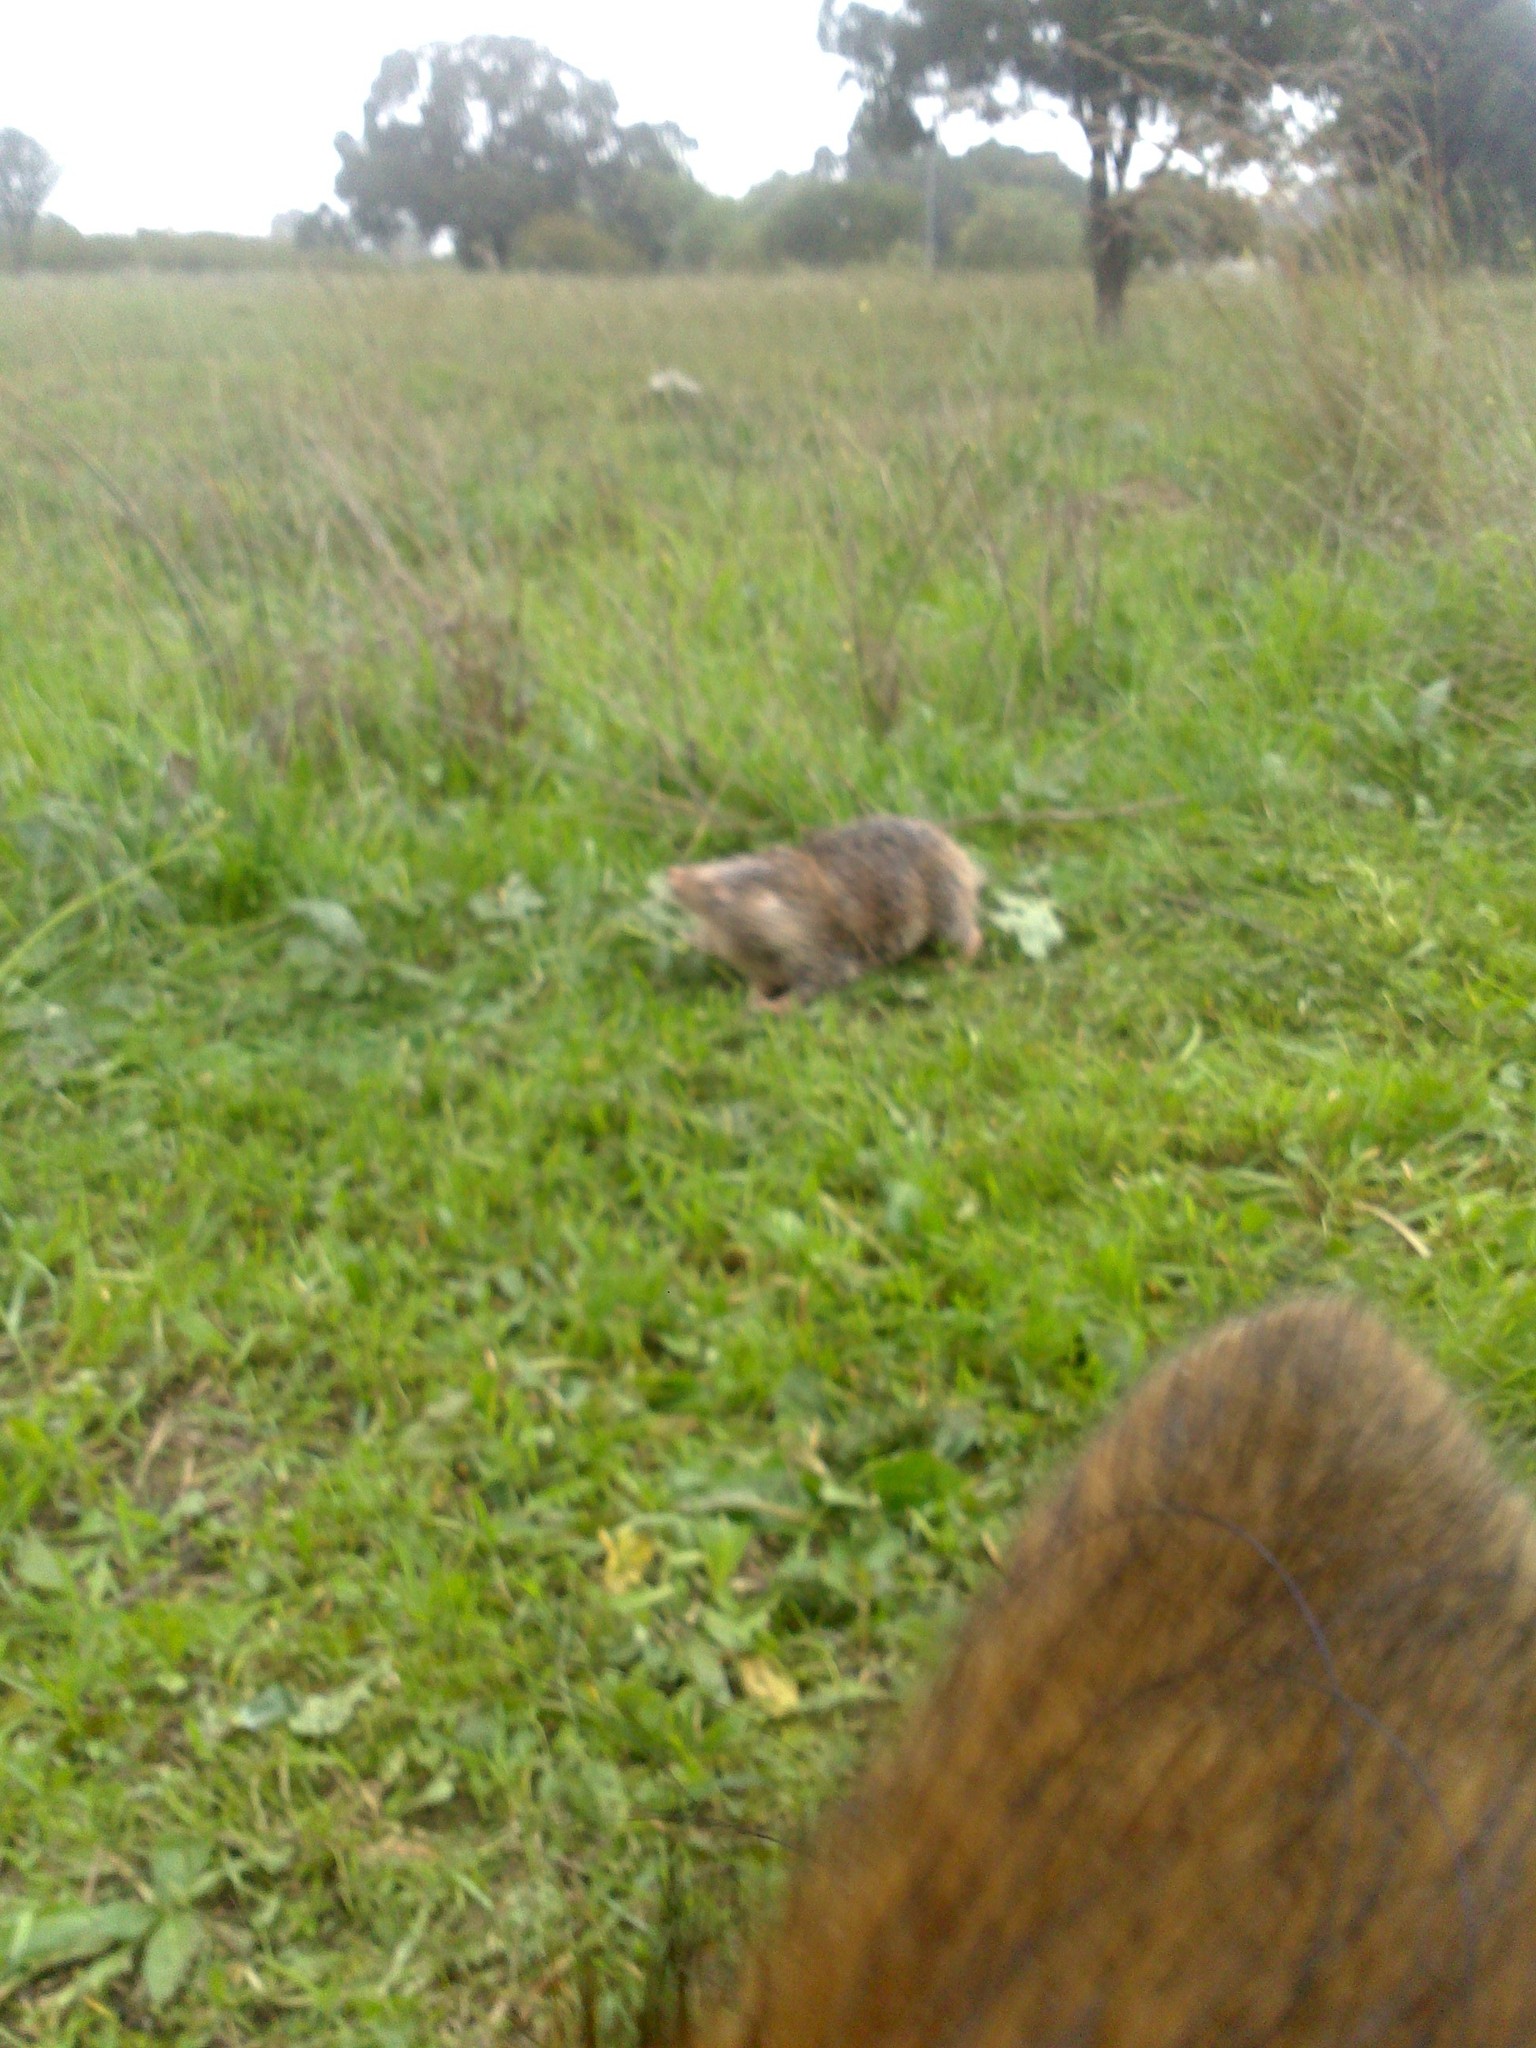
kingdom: Animalia
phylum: Chordata
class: Mammalia
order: Rodentia
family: Bathyergidae
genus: Bathyergus
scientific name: Bathyergus suillus
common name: Cape dune mole rat
